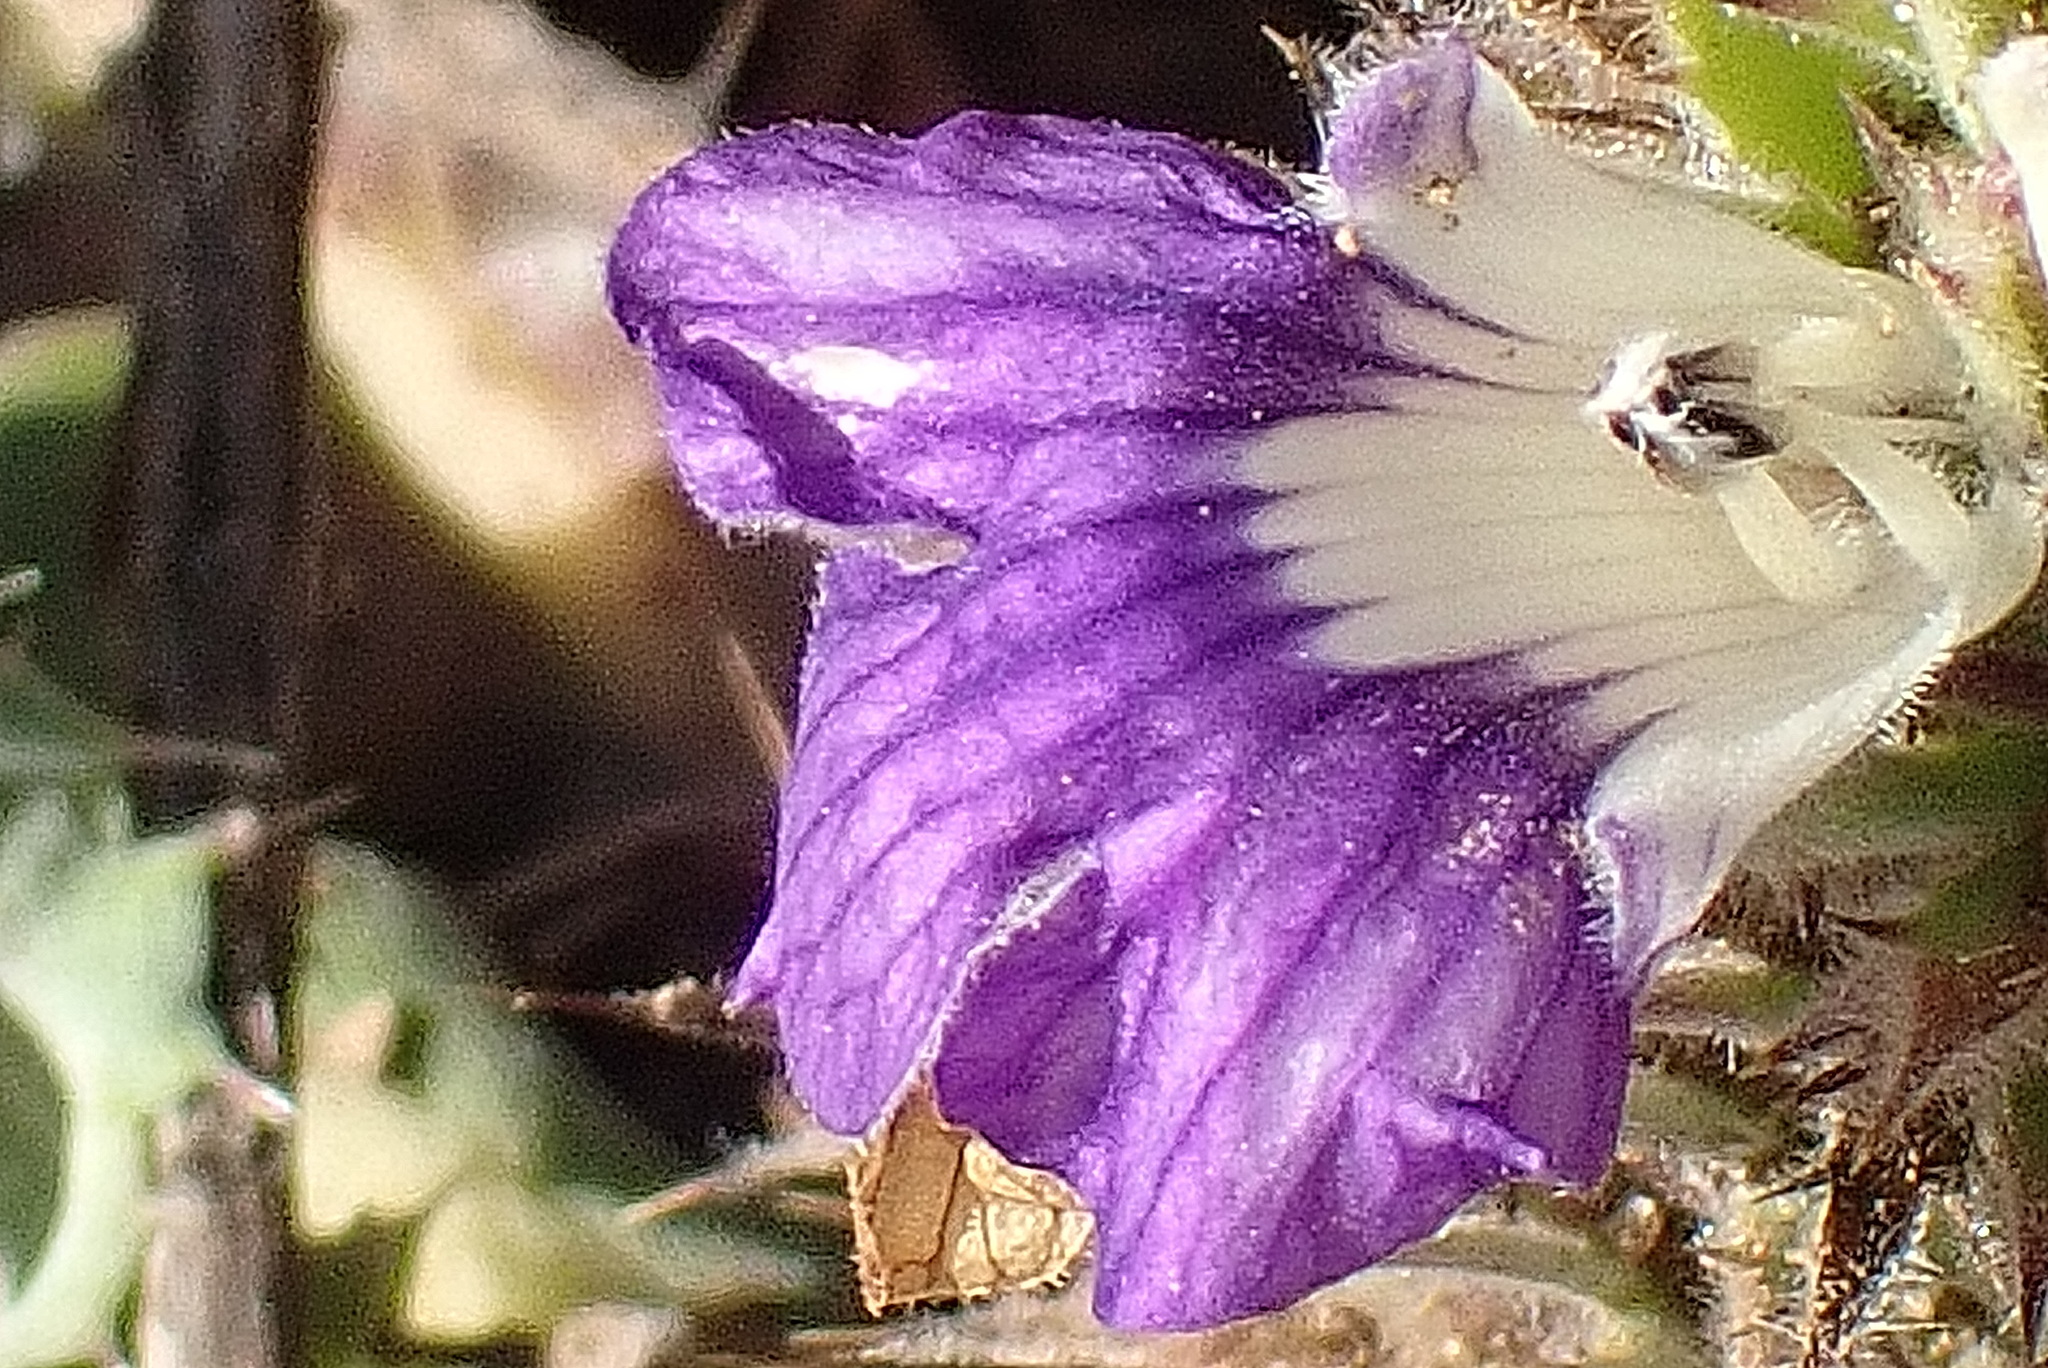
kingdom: Plantae
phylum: Tracheophyta
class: Magnoliopsida
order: Lamiales
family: Acanthaceae
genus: Acanthopsis
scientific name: Acanthopsis dispermoides
